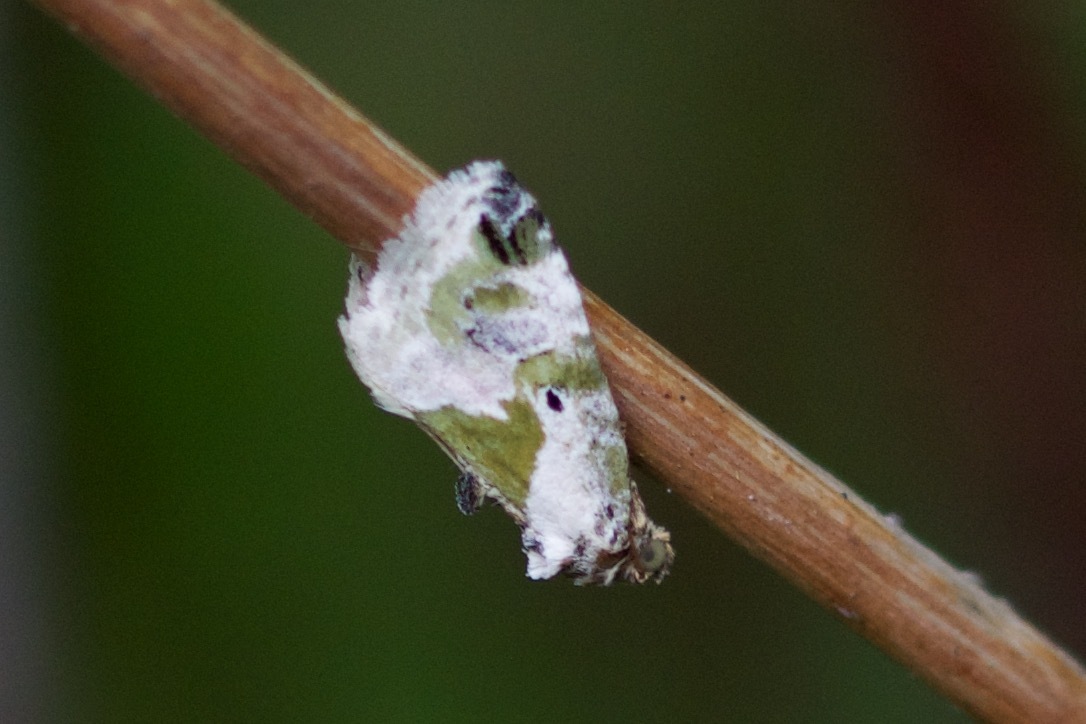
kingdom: Animalia
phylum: Arthropoda
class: Insecta
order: Lepidoptera
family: Noctuidae
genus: Maliattha
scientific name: Maliattha synochitis
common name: Black-dotted glyph
